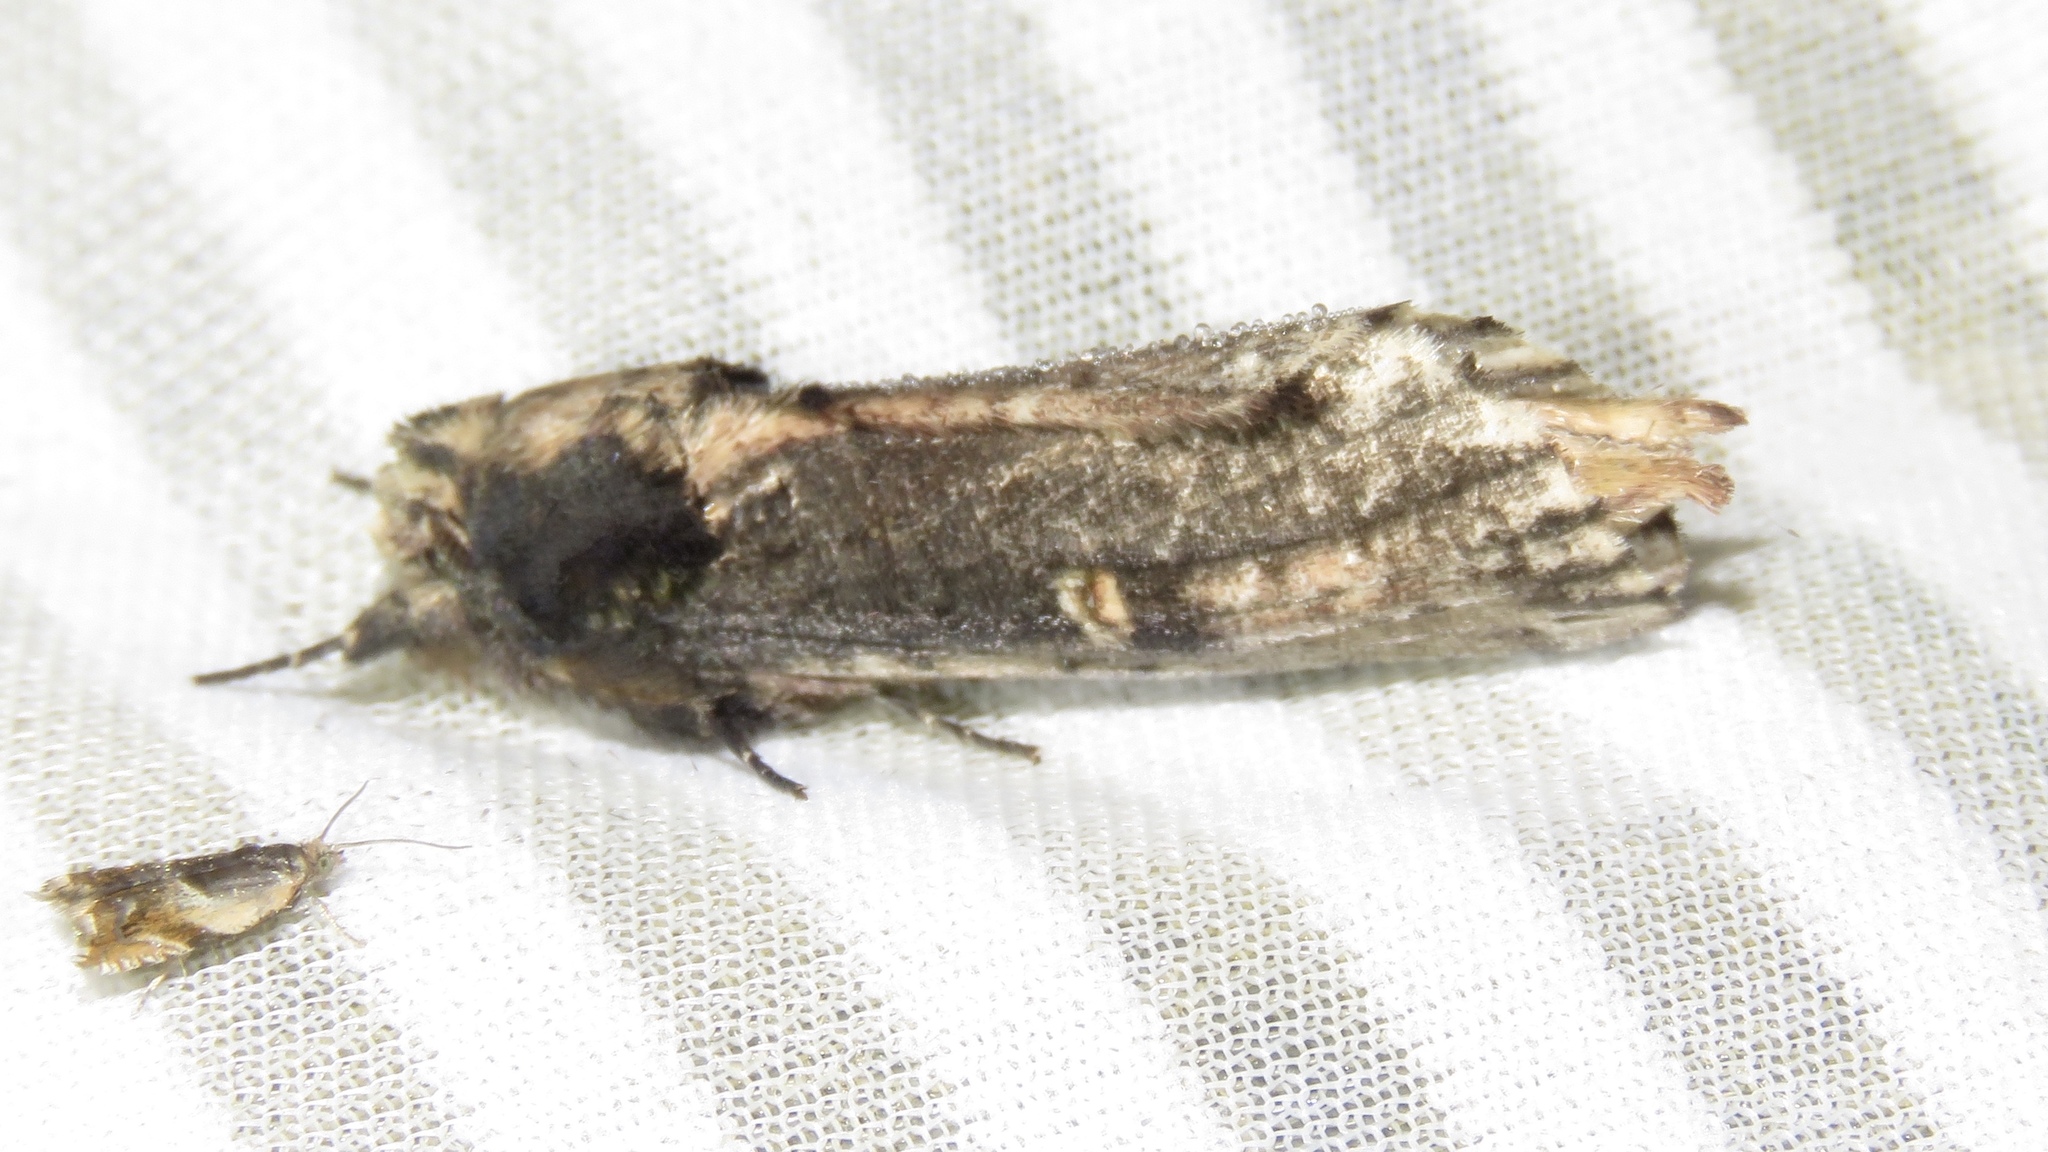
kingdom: Animalia
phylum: Arthropoda
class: Insecta
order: Lepidoptera
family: Notodontidae
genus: Schizura
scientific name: Schizura ipomaeae
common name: Morning-glory prominent
